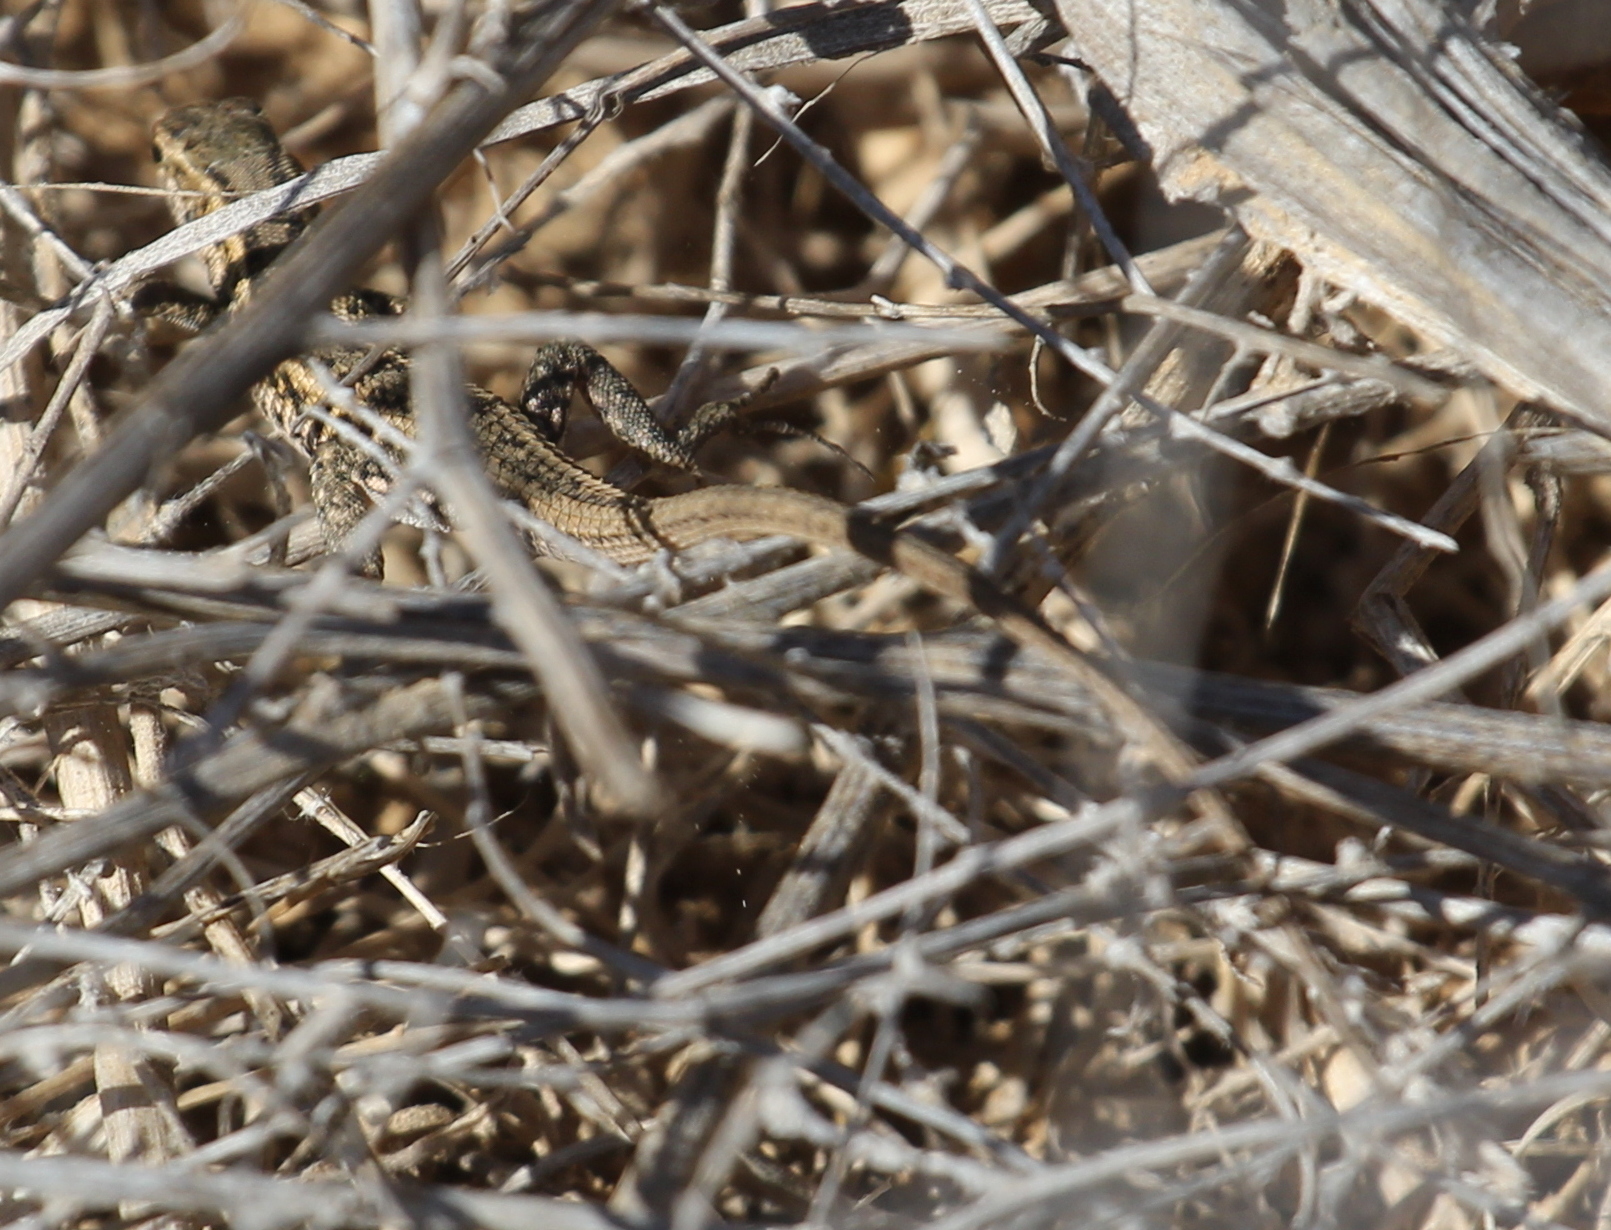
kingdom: Animalia
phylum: Chordata
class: Squamata
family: Lacertidae
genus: Ophisops
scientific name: Ophisops elegans
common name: Snake-eyed lizard
